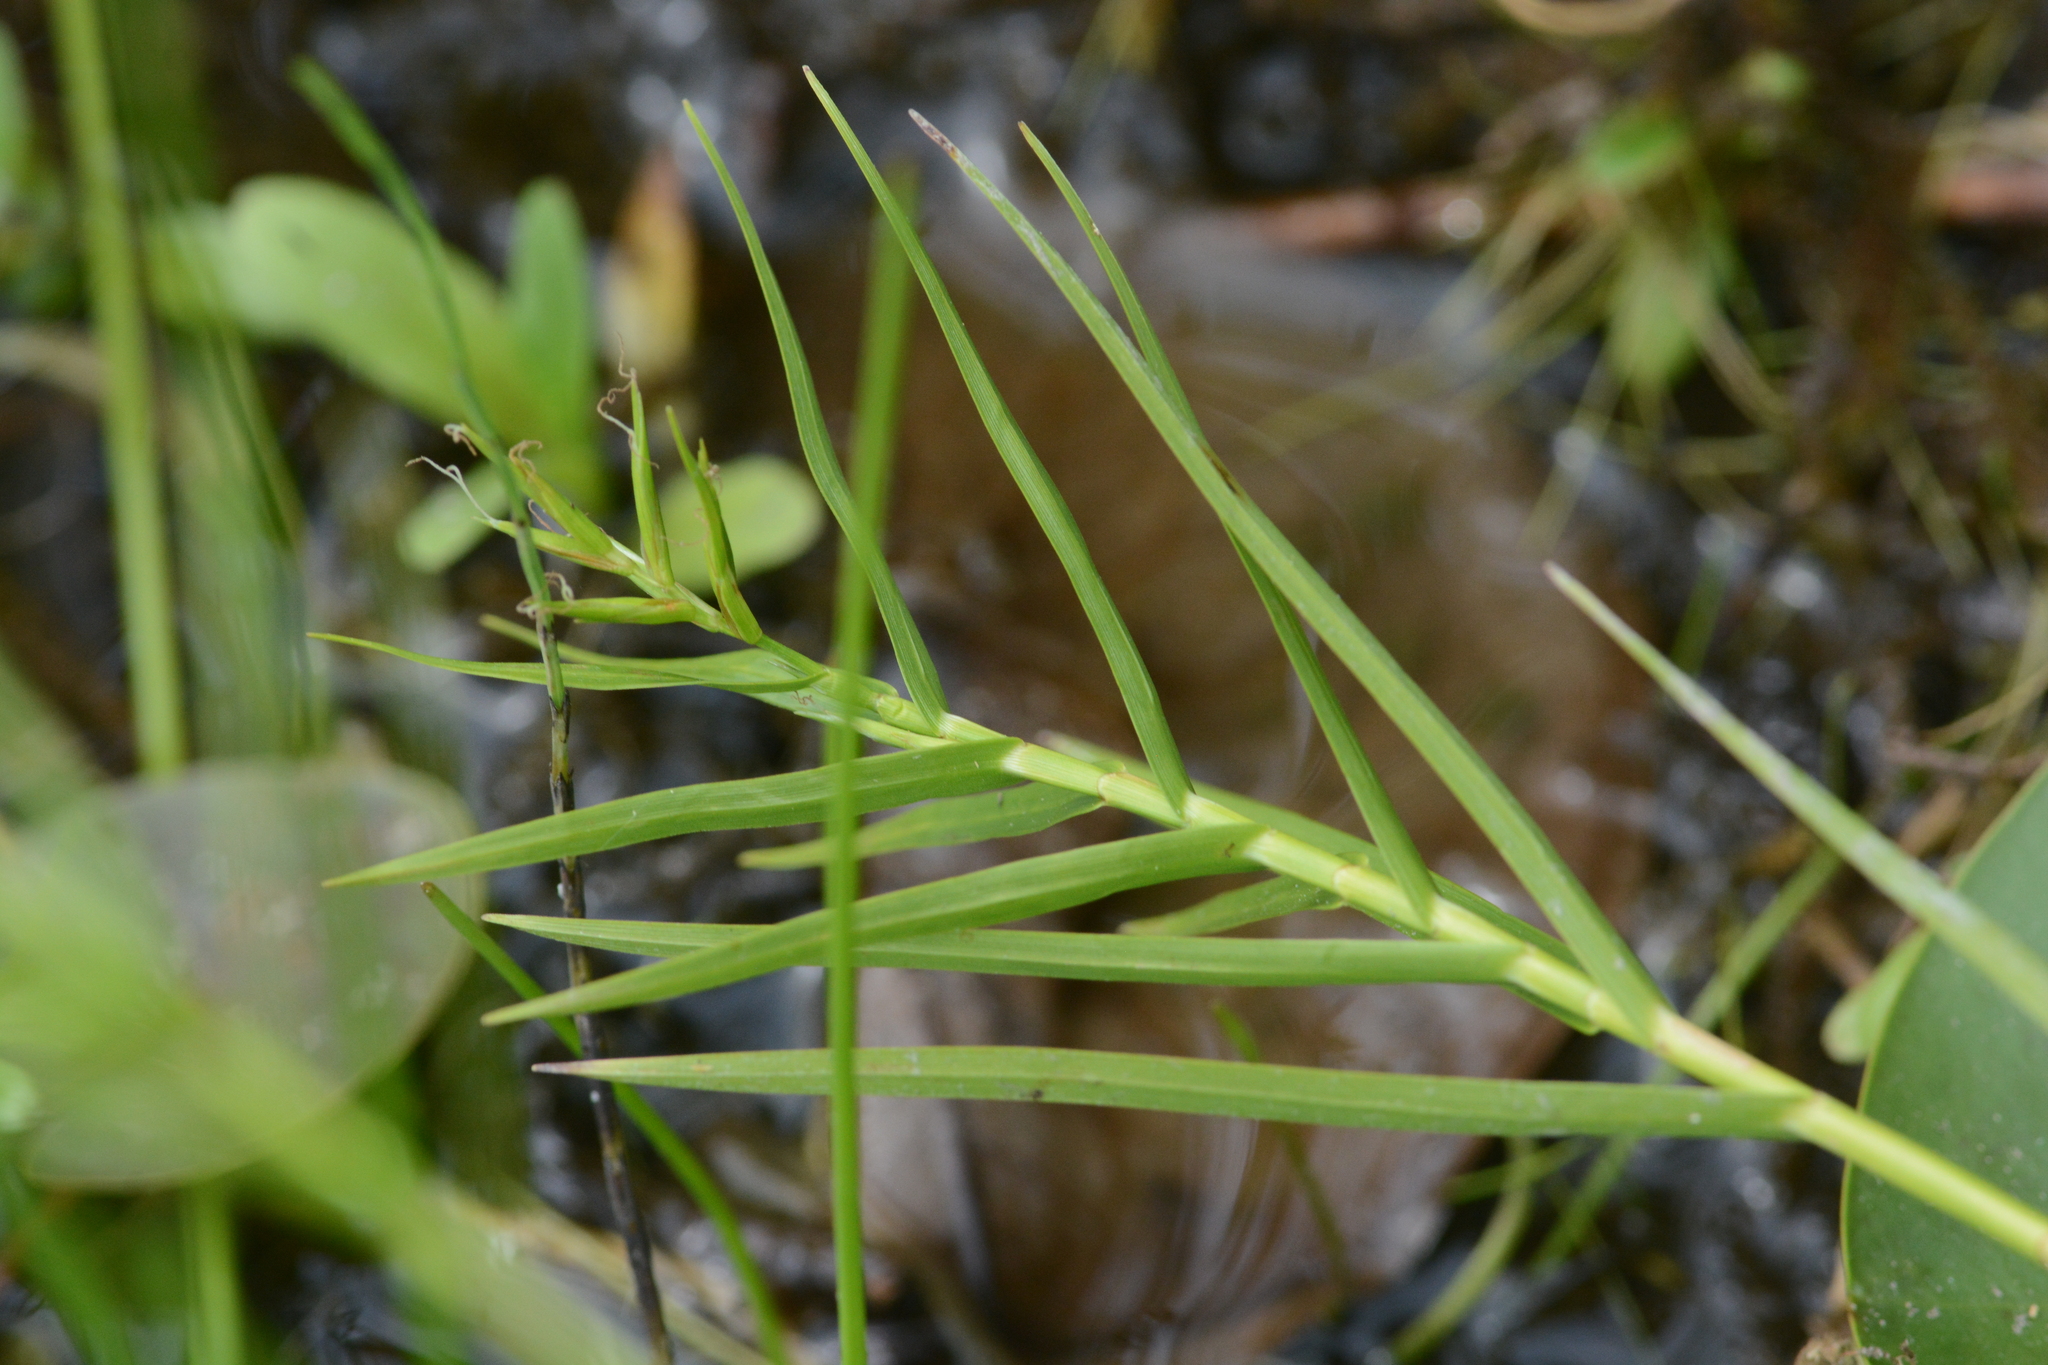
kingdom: Plantae
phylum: Tracheophyta
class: Liliopsida
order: Poales
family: Cyperaceae
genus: Dulichium
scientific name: Dulichium arundinaceum
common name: Three-way sedge
